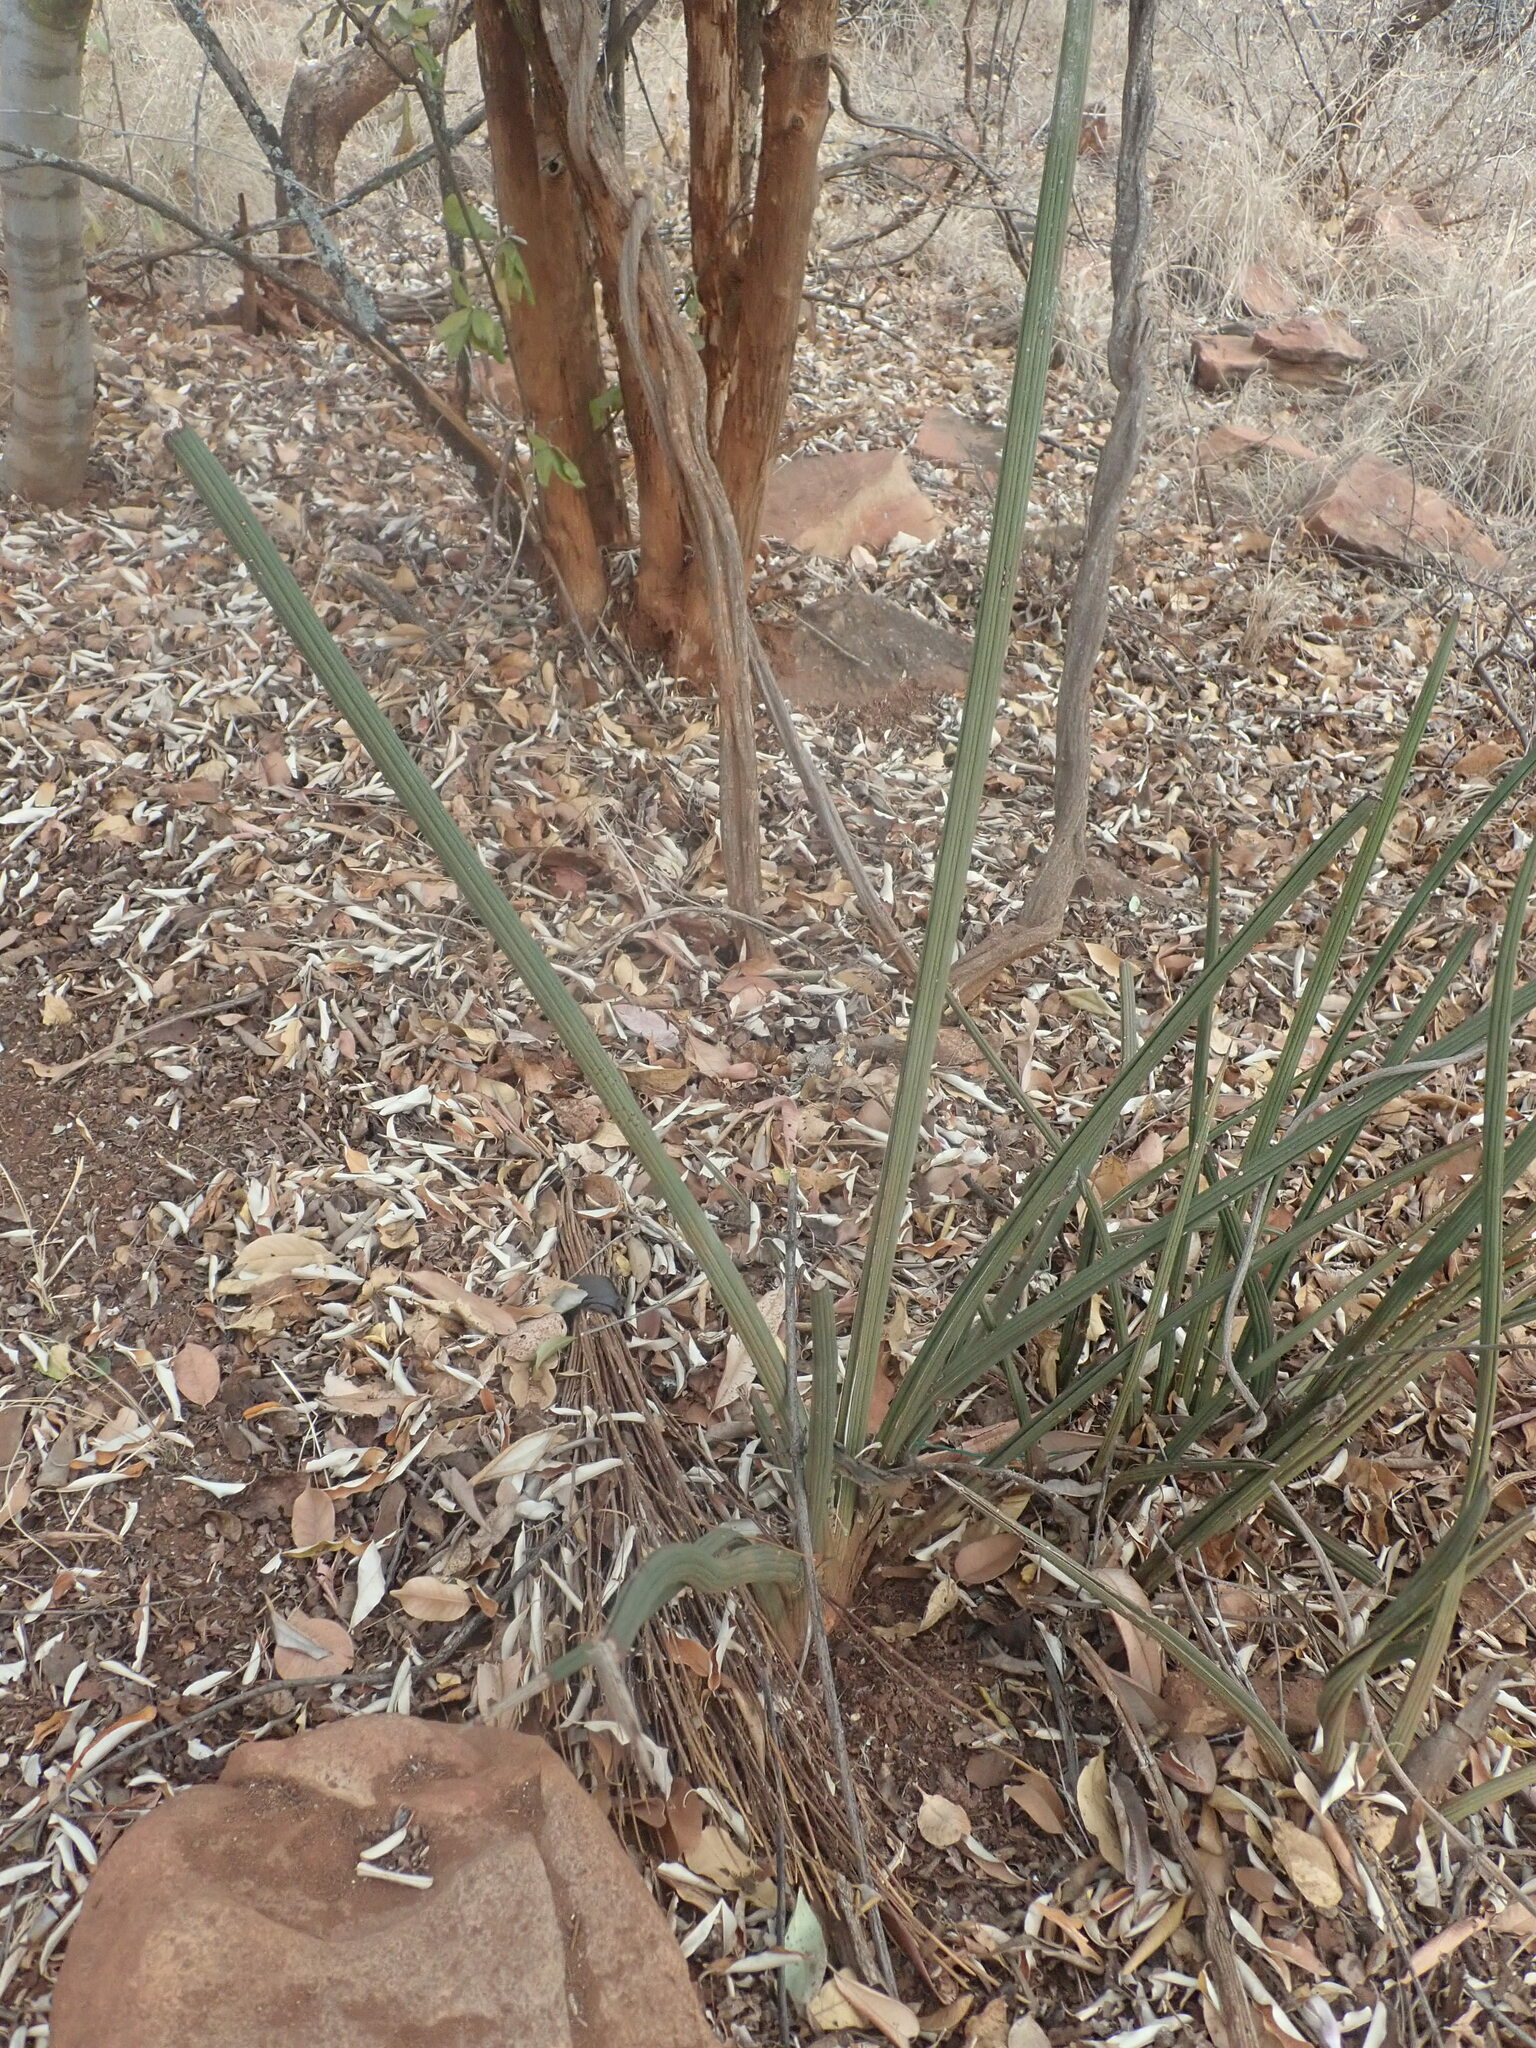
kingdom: Plantae
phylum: Tracheophyta
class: Liliopsida
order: Asparagales
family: Asparagaceae
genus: Dracaena
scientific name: Dracaena pearsonii
